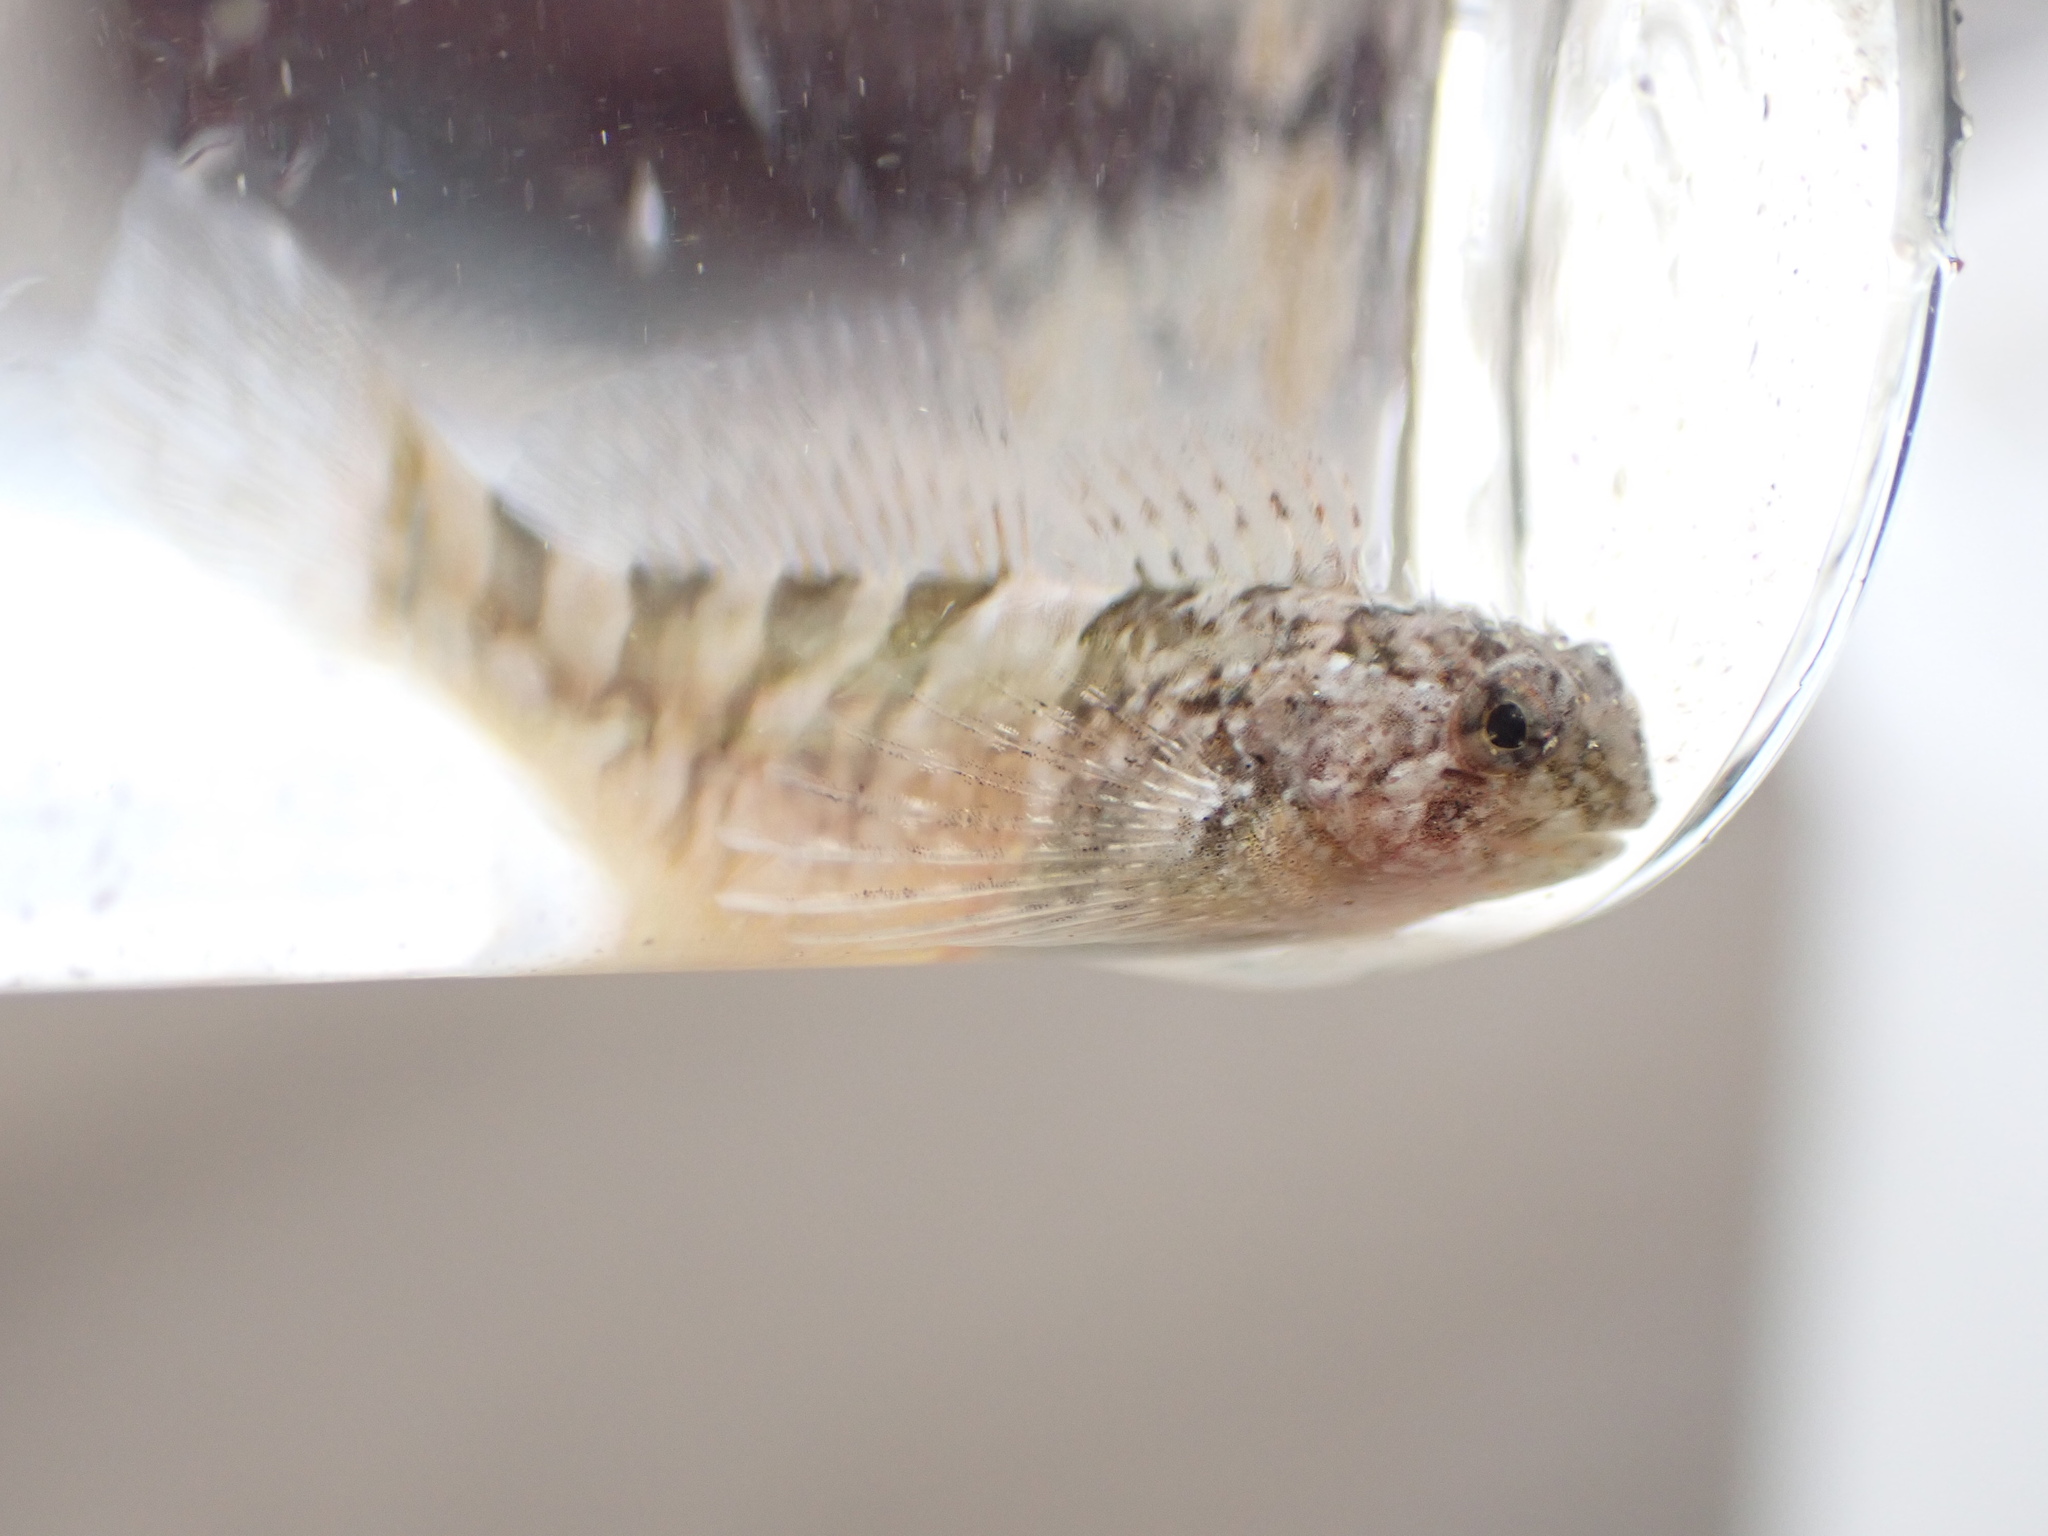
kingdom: Animalia
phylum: Chordata
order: Scorpaeniformes
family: Cottidae
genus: Clinocottus
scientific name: Clinocottus globiceps
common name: Mosshead sculpin
